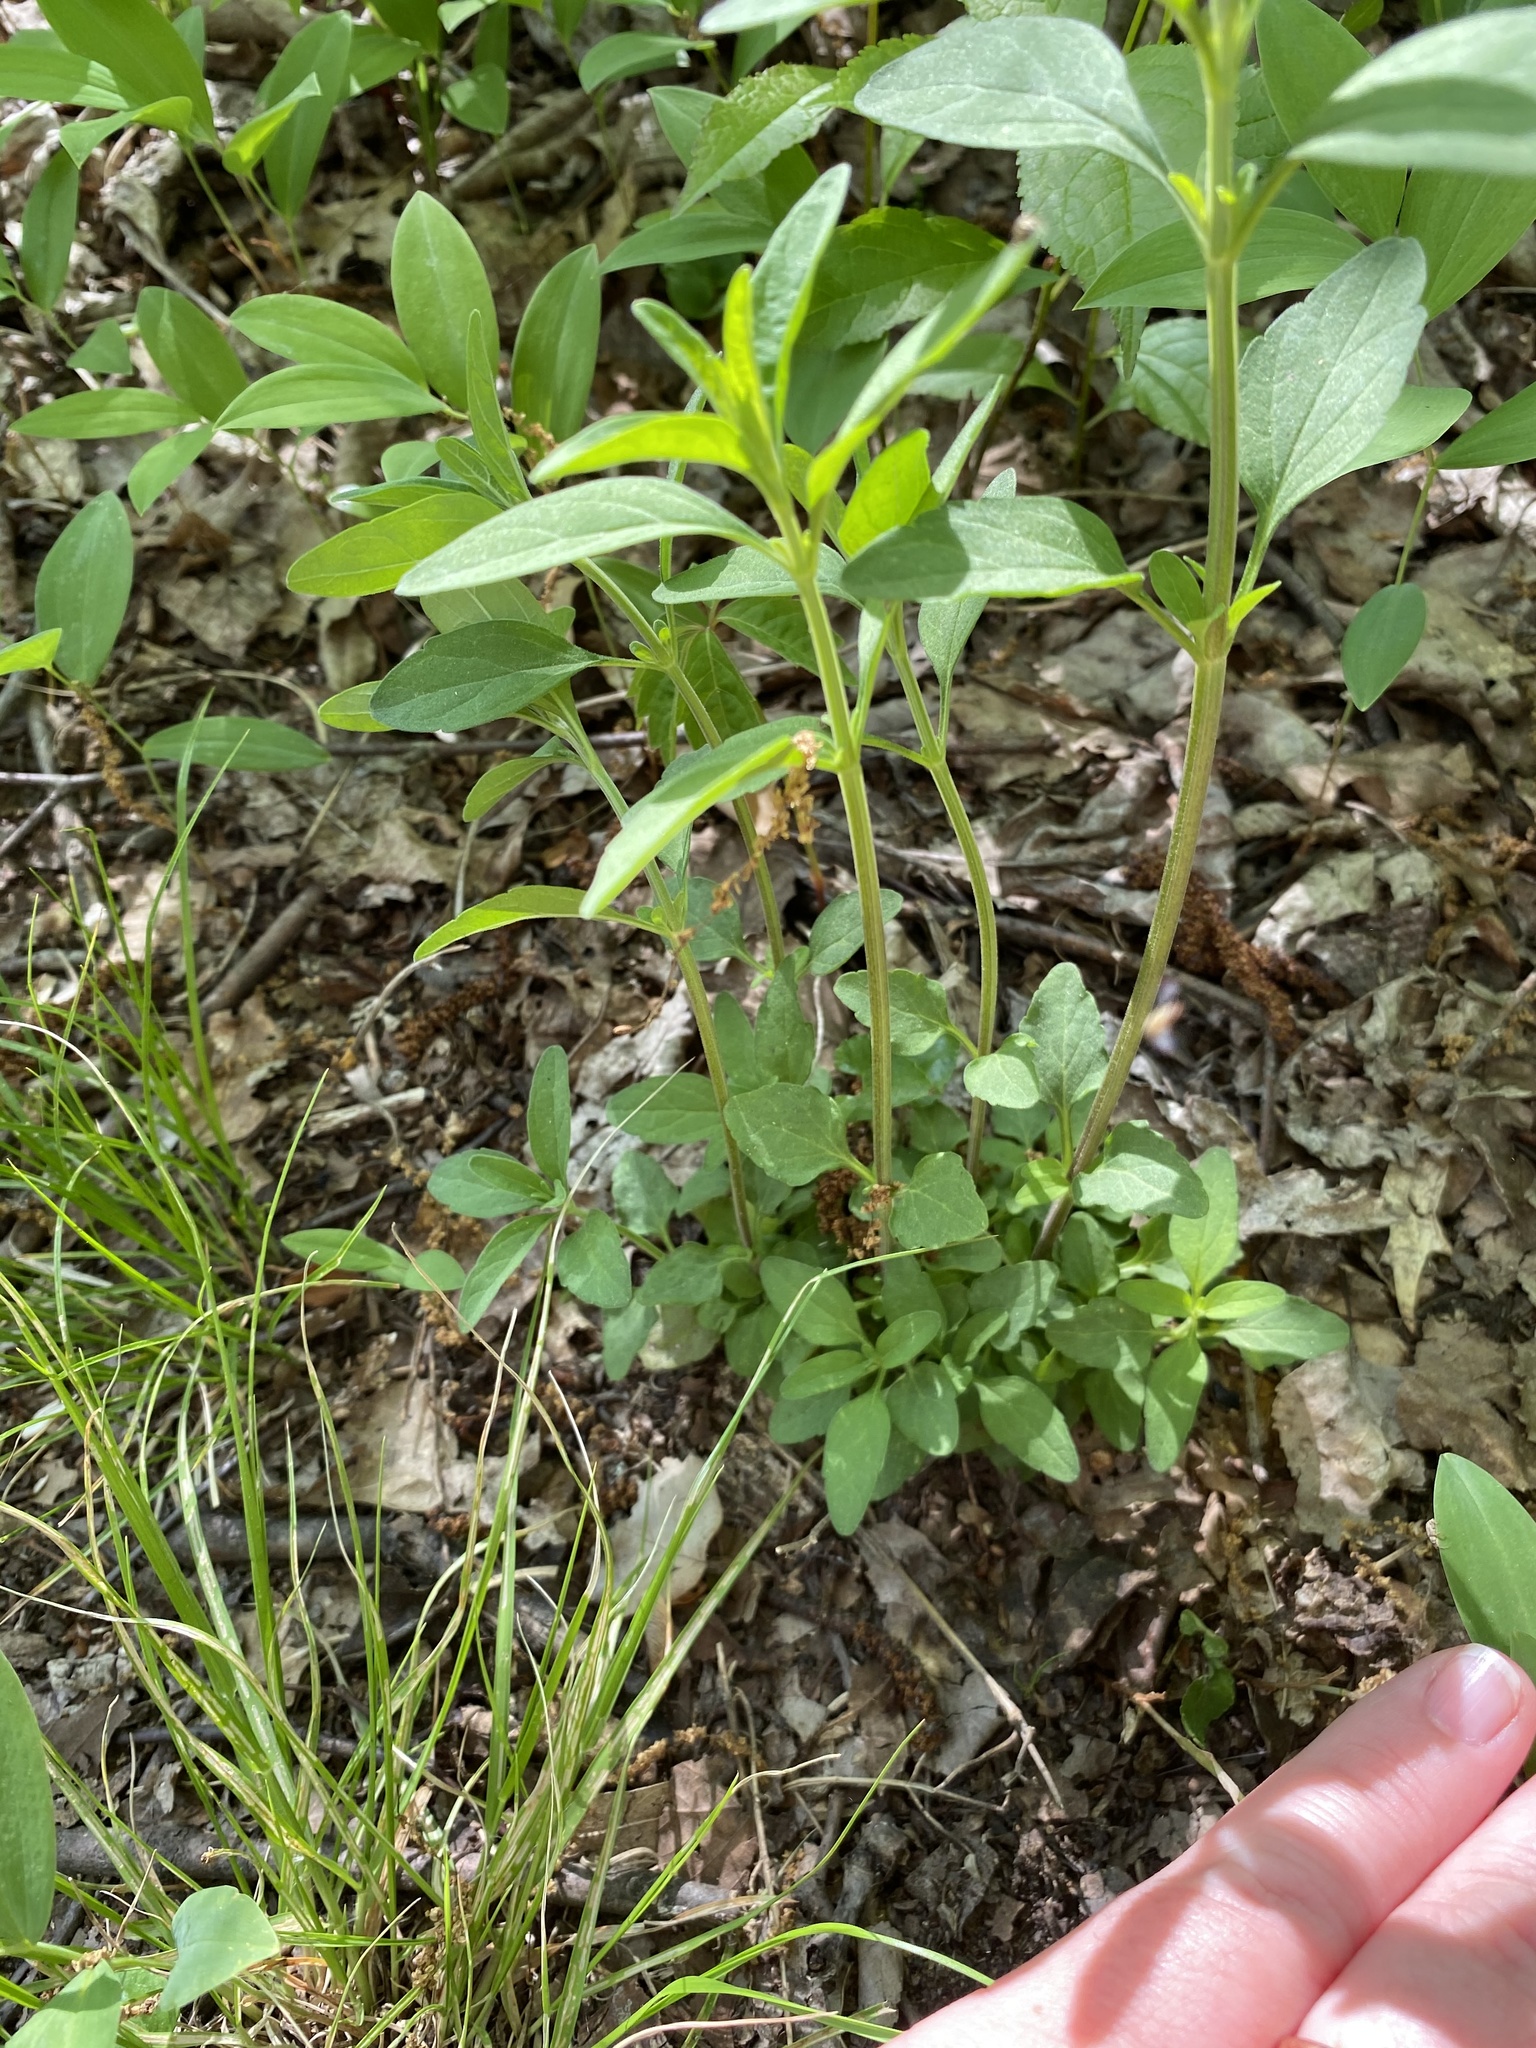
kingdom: Plantae
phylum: Tracheophyta
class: Magnoliopsida
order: Lamiales
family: Lamiaceae
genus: Scutellaria
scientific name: Scutellaria integrifolia
